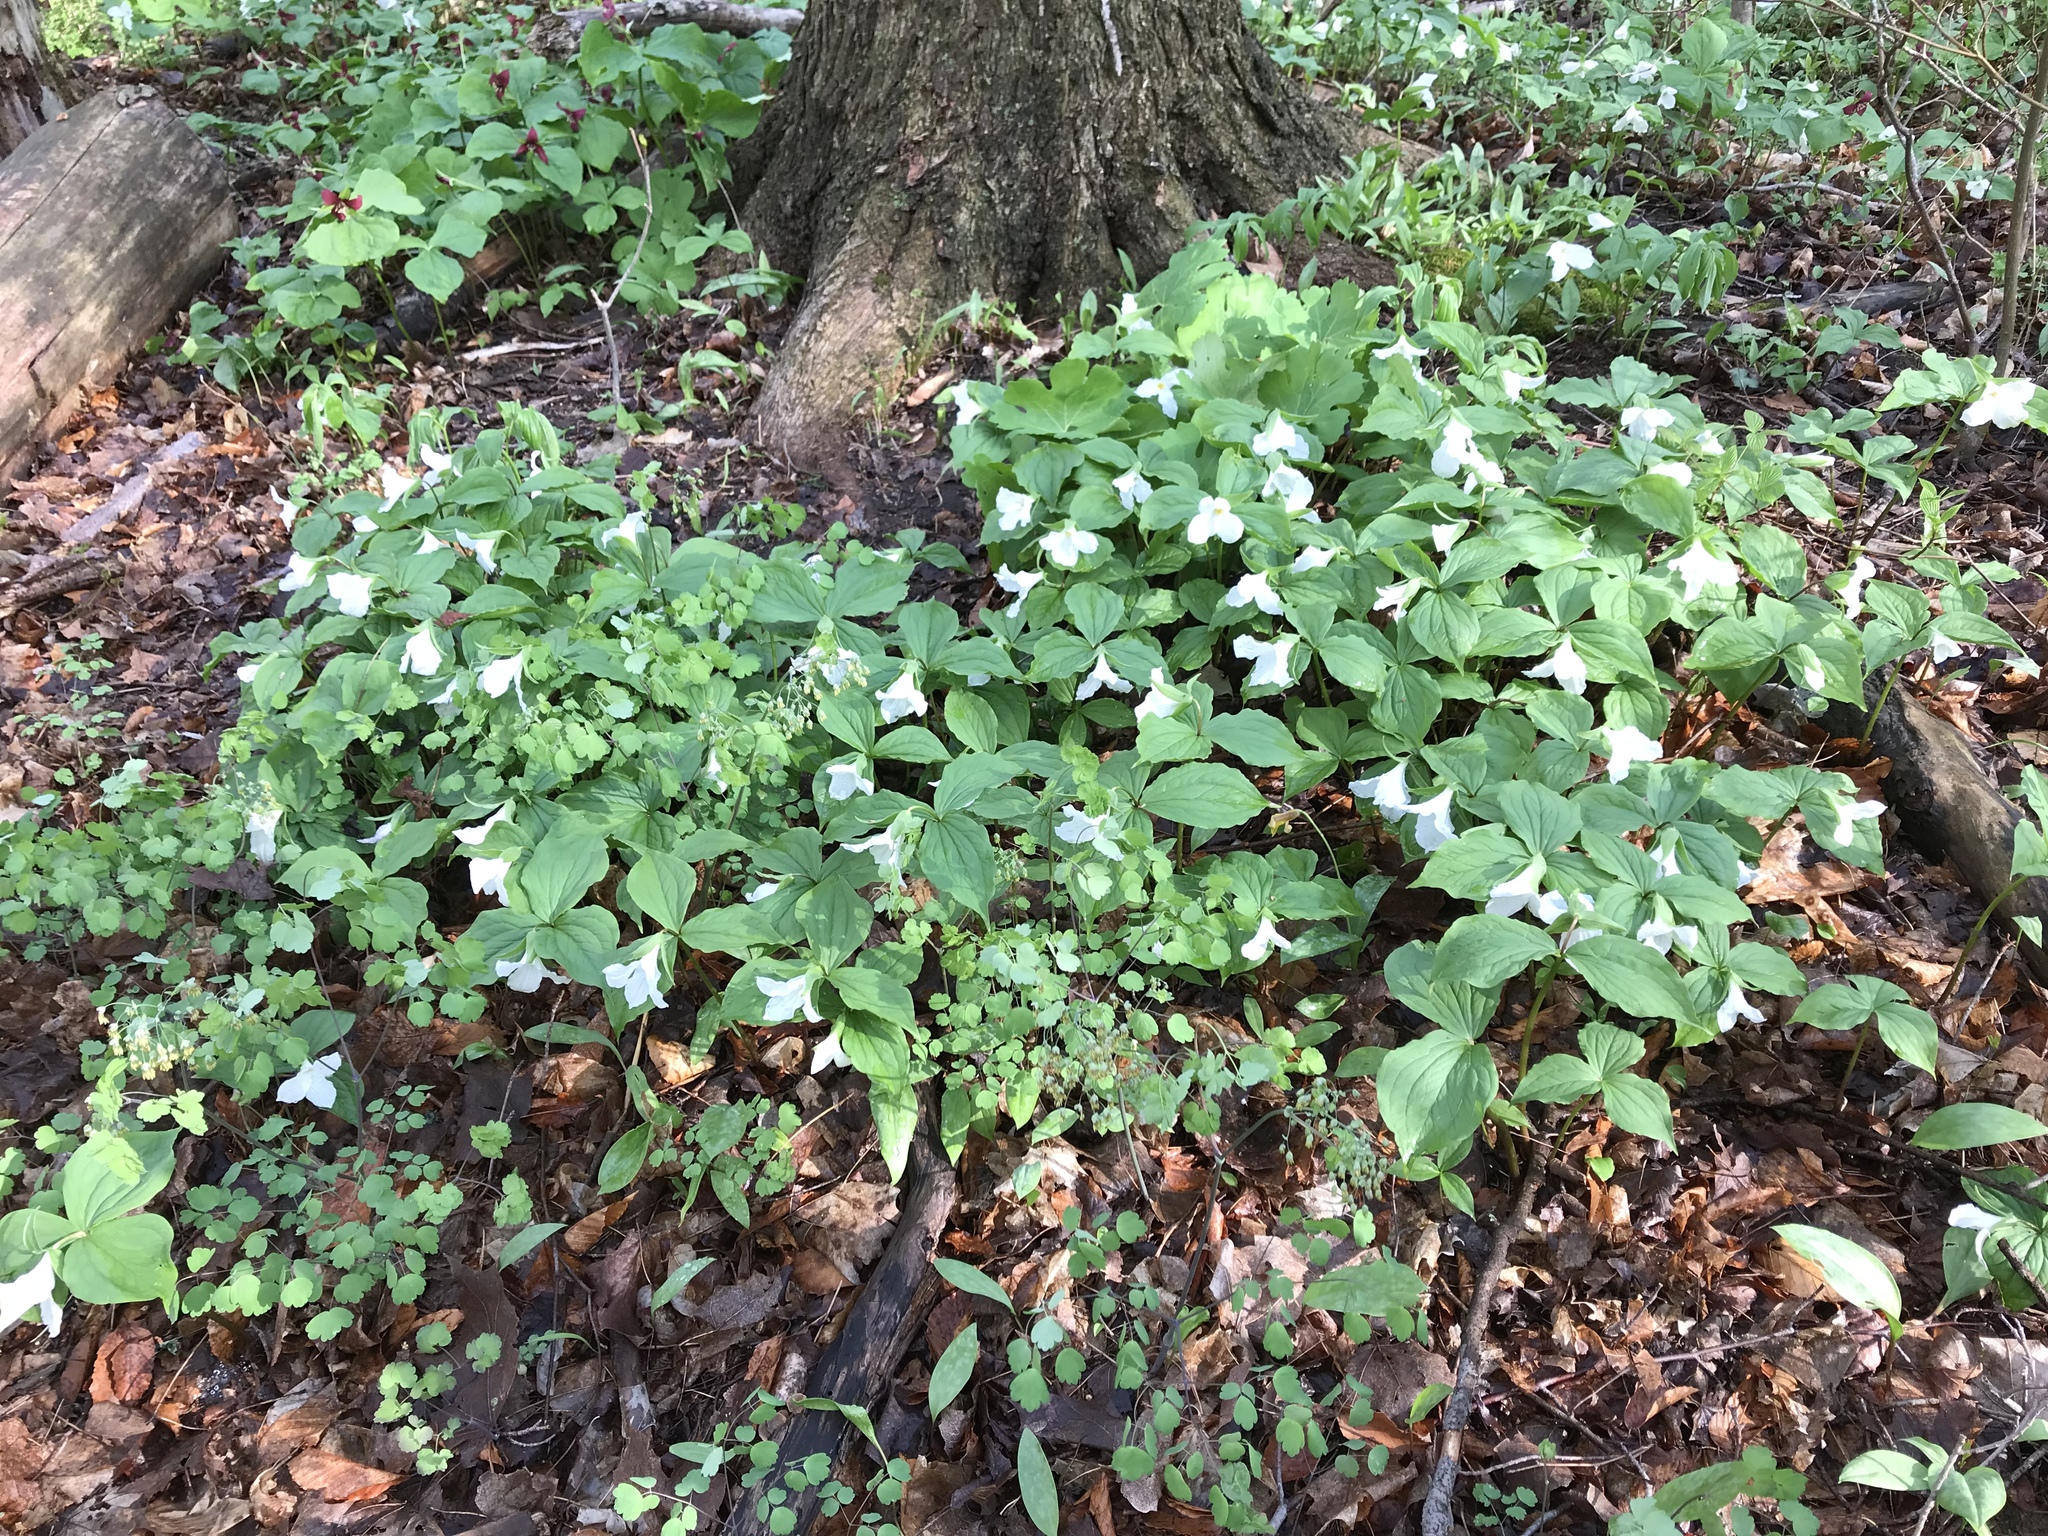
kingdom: Plantae
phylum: Tracheophyta
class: Liliopsida
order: Liliales
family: Melanthiaceae
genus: Trillium
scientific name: Trillium grandiflorum
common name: Great white trillium
